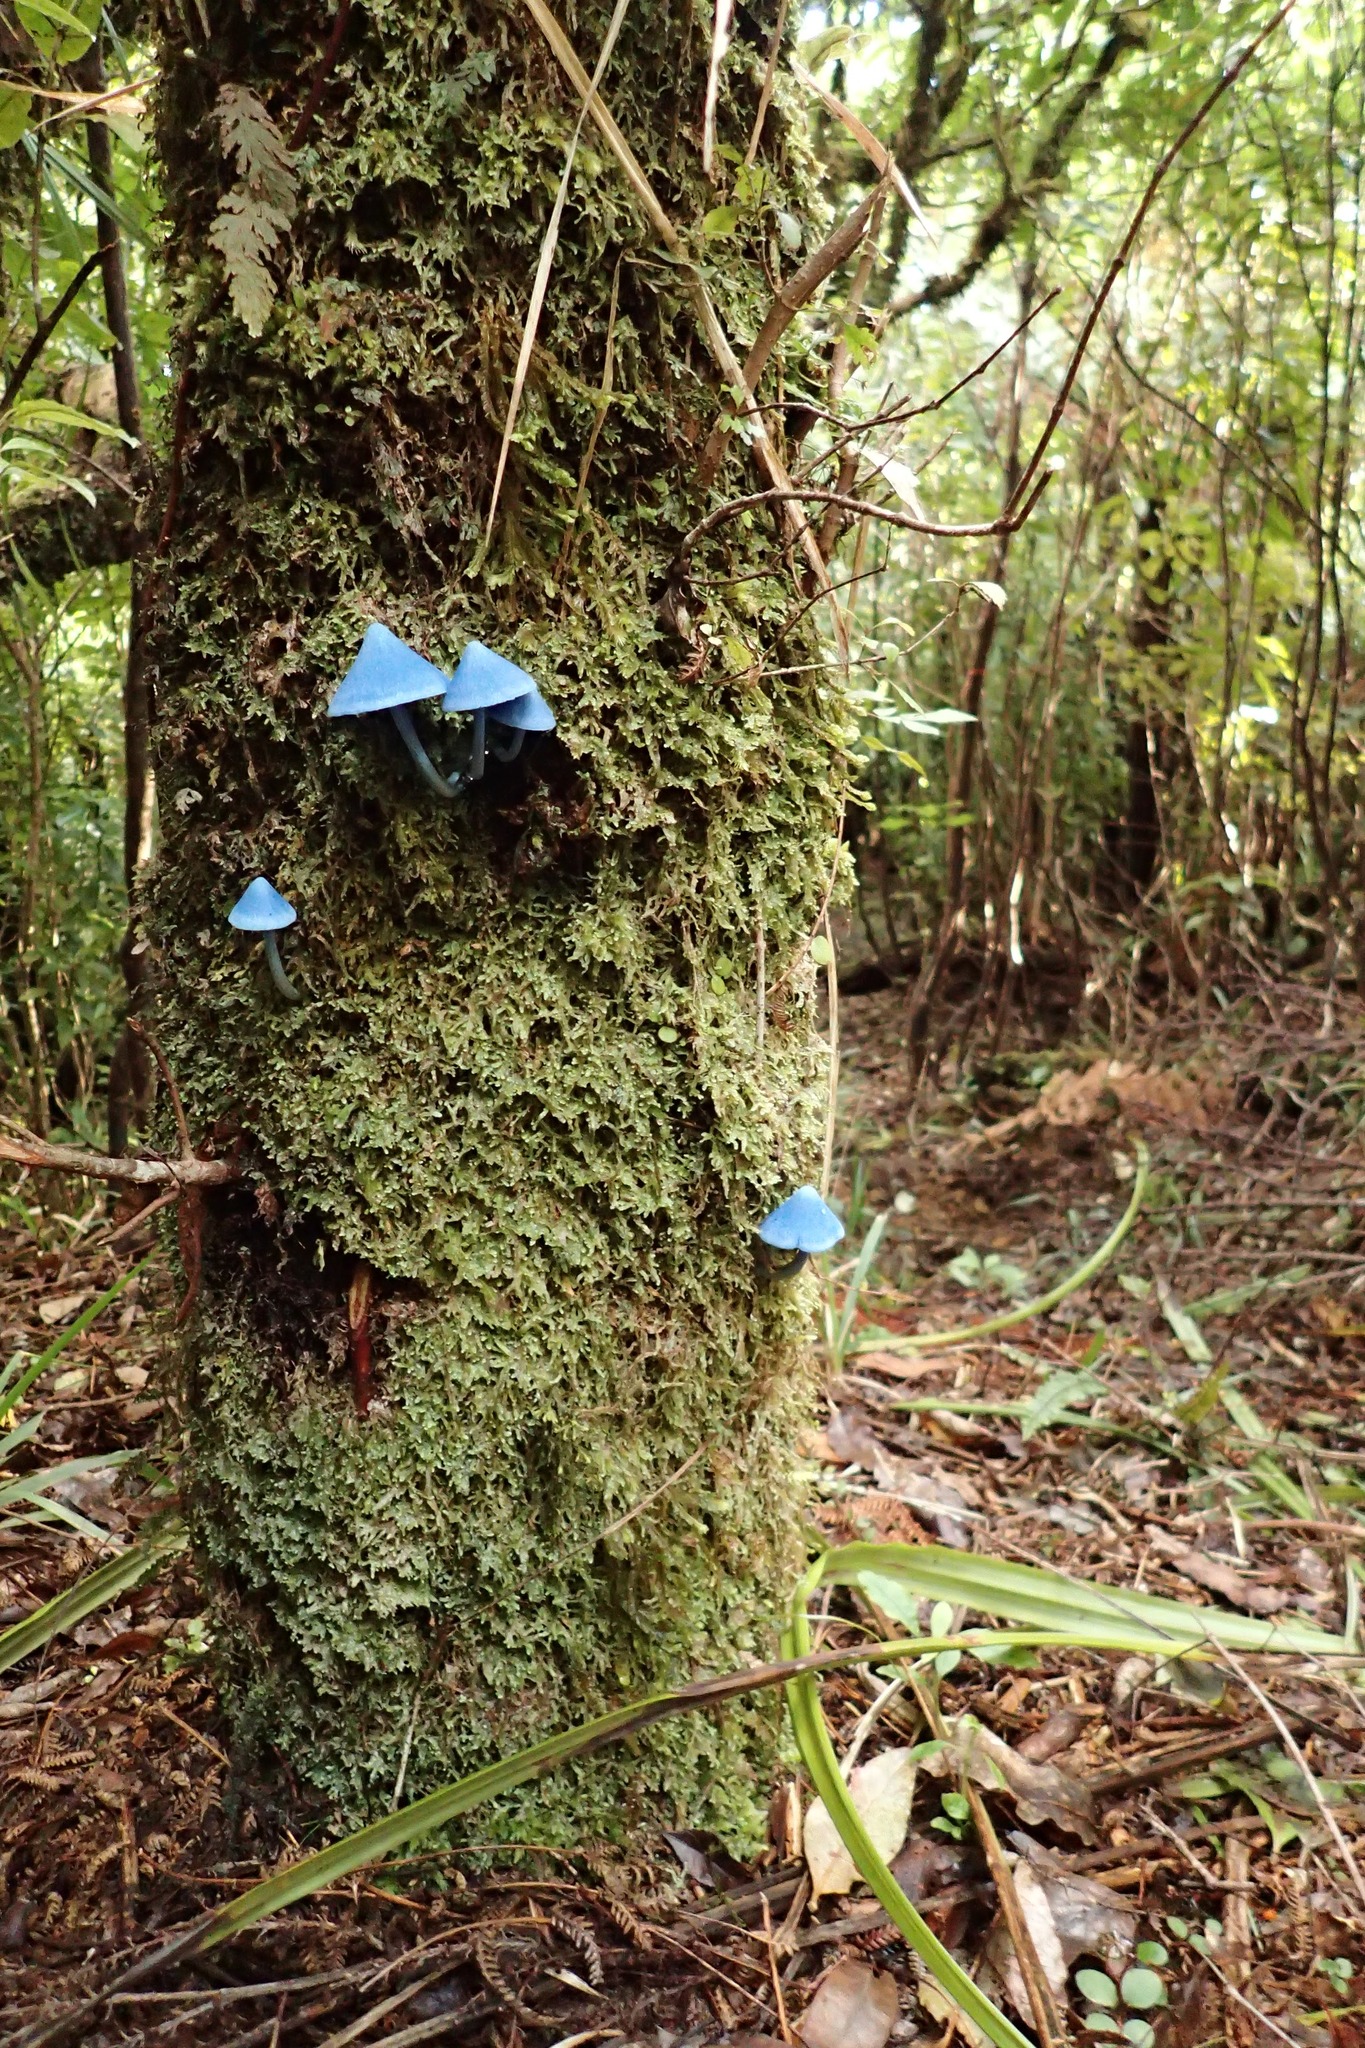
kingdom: Fungi
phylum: Basidiomycota
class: Agaricomycetes
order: Agaricales
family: Entolomataceae
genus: Entoloma
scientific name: Entoloma hochstetteri
